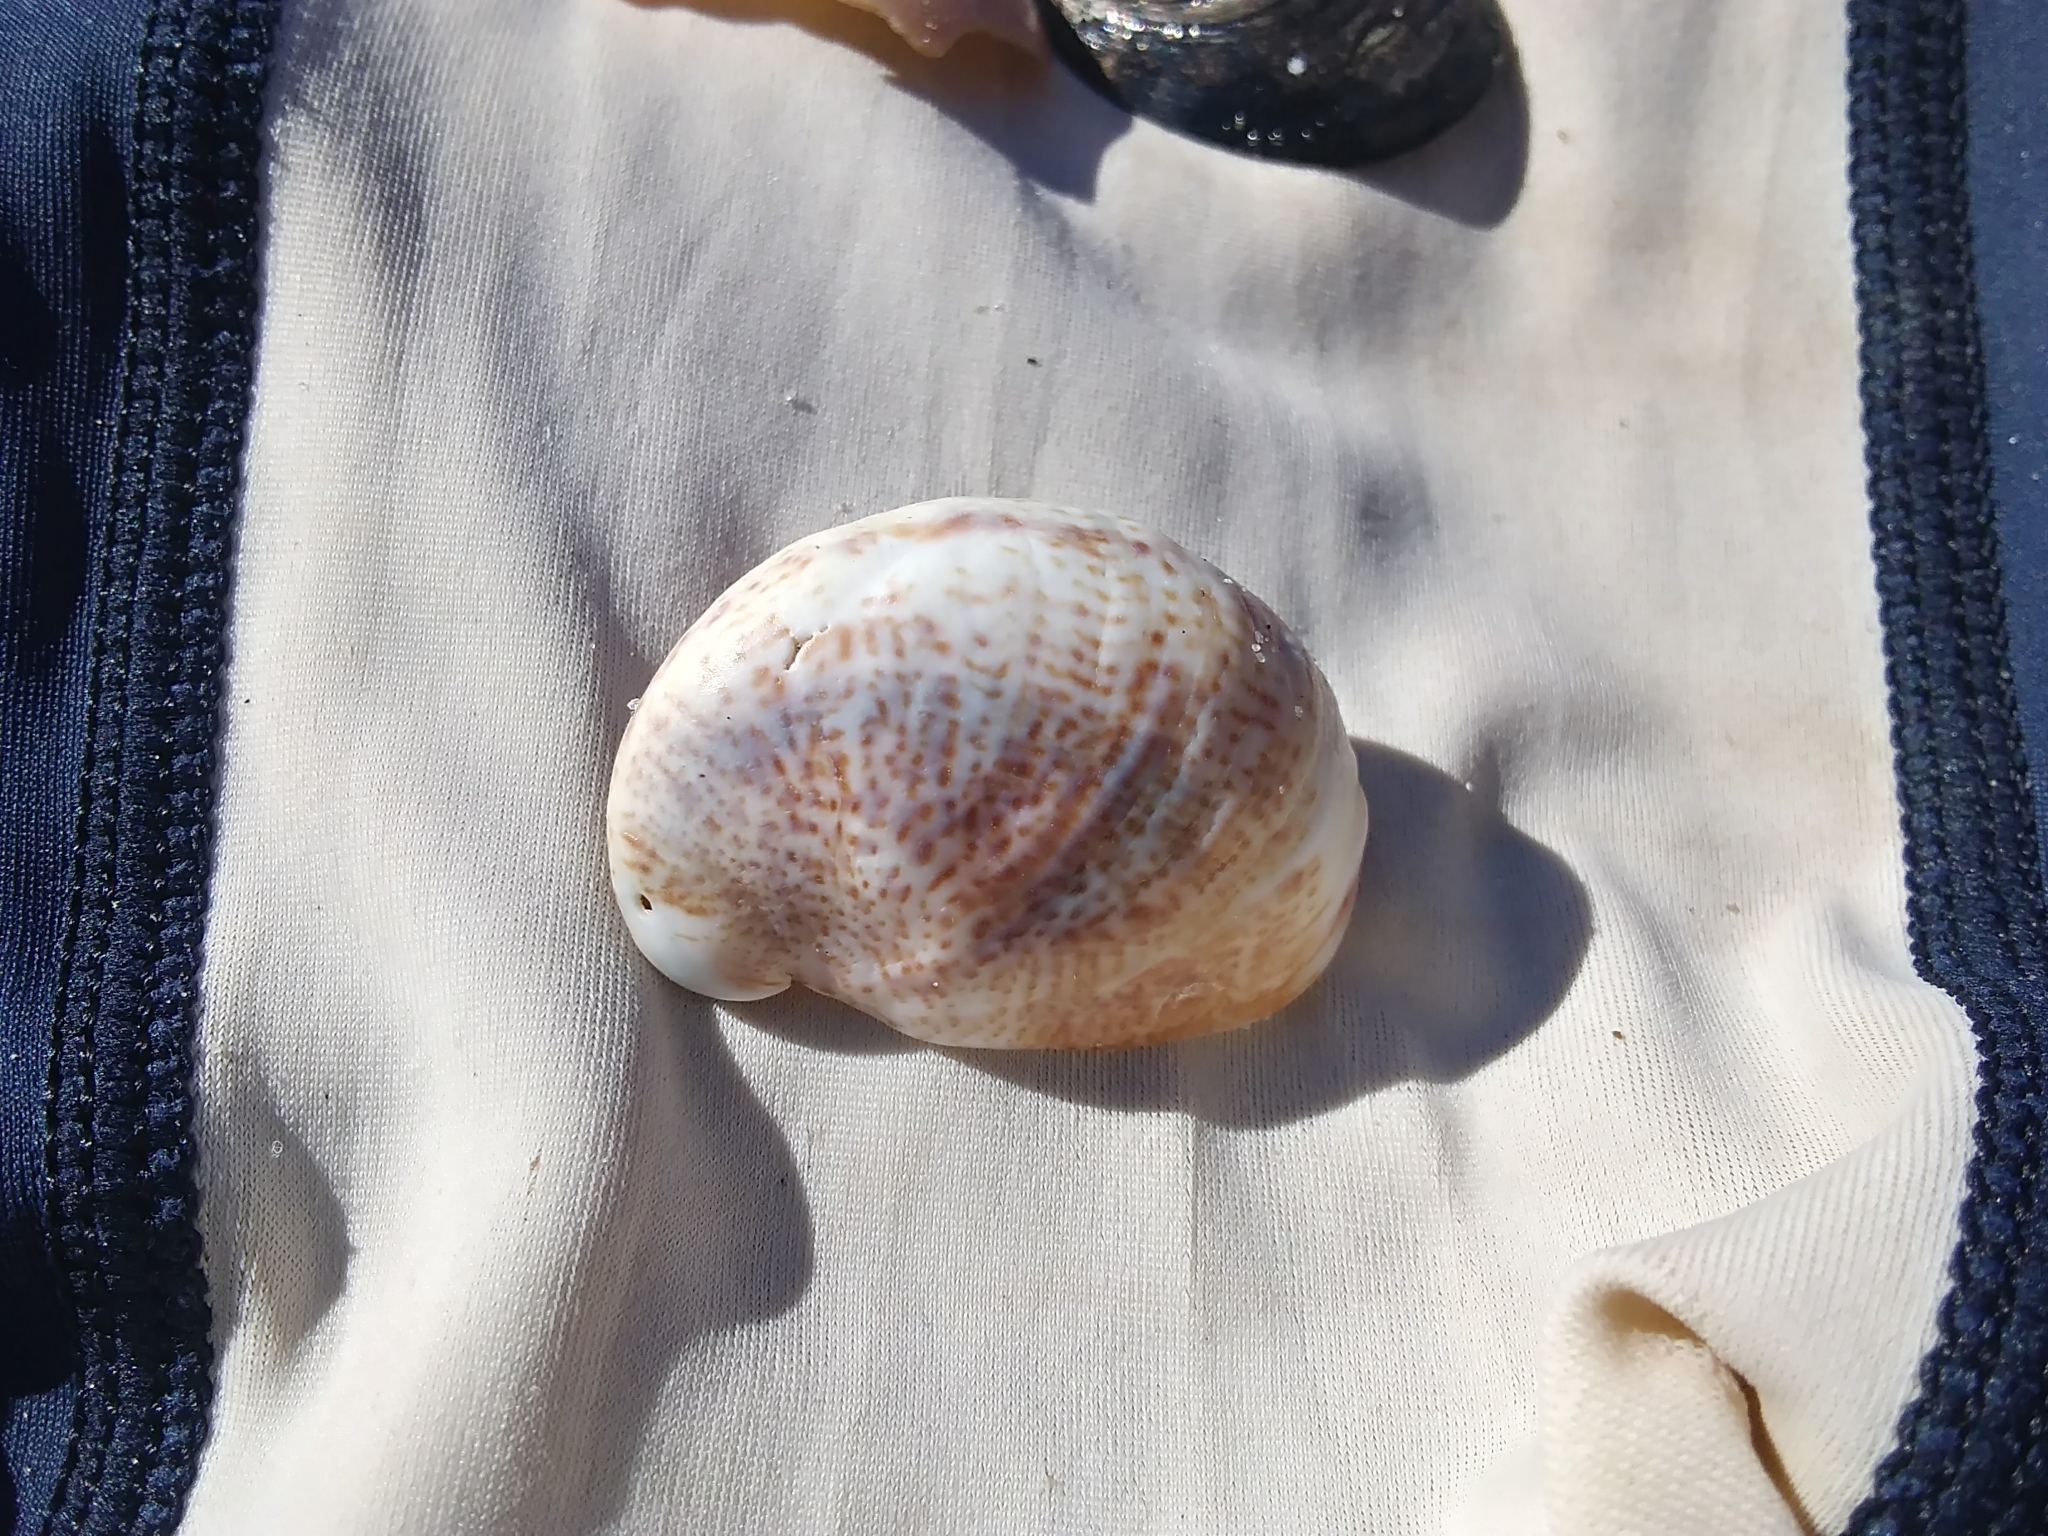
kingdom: Animalia
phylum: Mollusca
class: Gastropoda
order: Littorinimorpha
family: Calyptraeidae
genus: Crepidula
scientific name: Crepidula fornicata
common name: Slipper limpet
